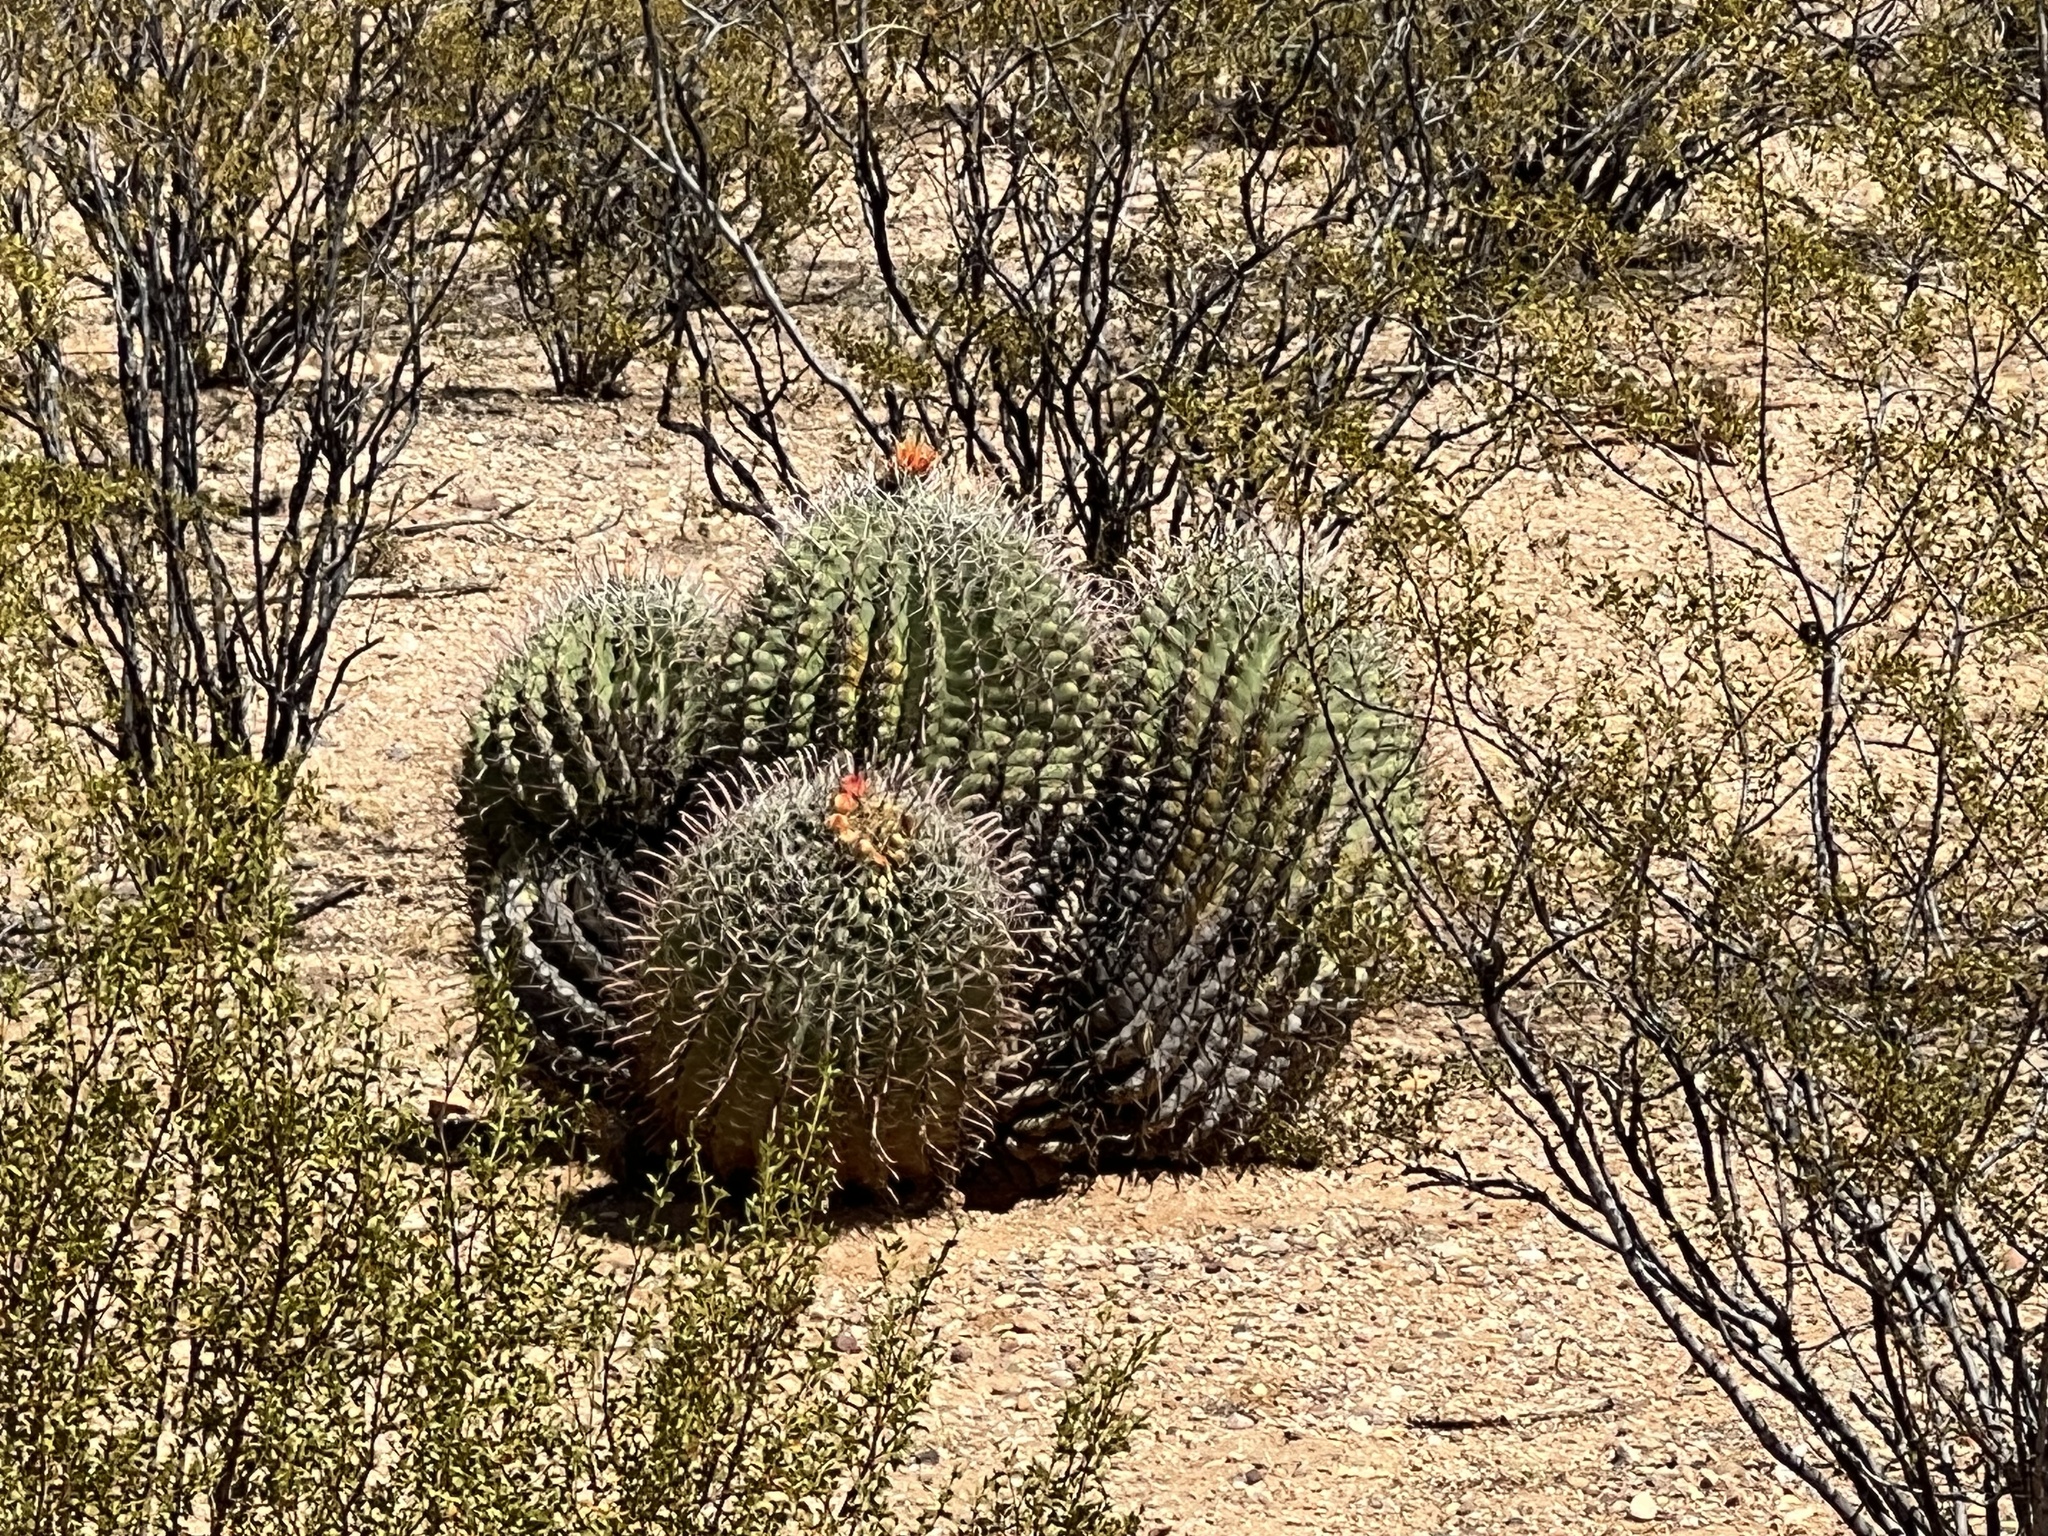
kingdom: Plantae
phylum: Tracheophyta
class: Magnoliopsida
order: Caryophyllales
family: Cactaceae
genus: Ferocactus
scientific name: Ferocactus wislizeni
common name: Candy barrel cactus
